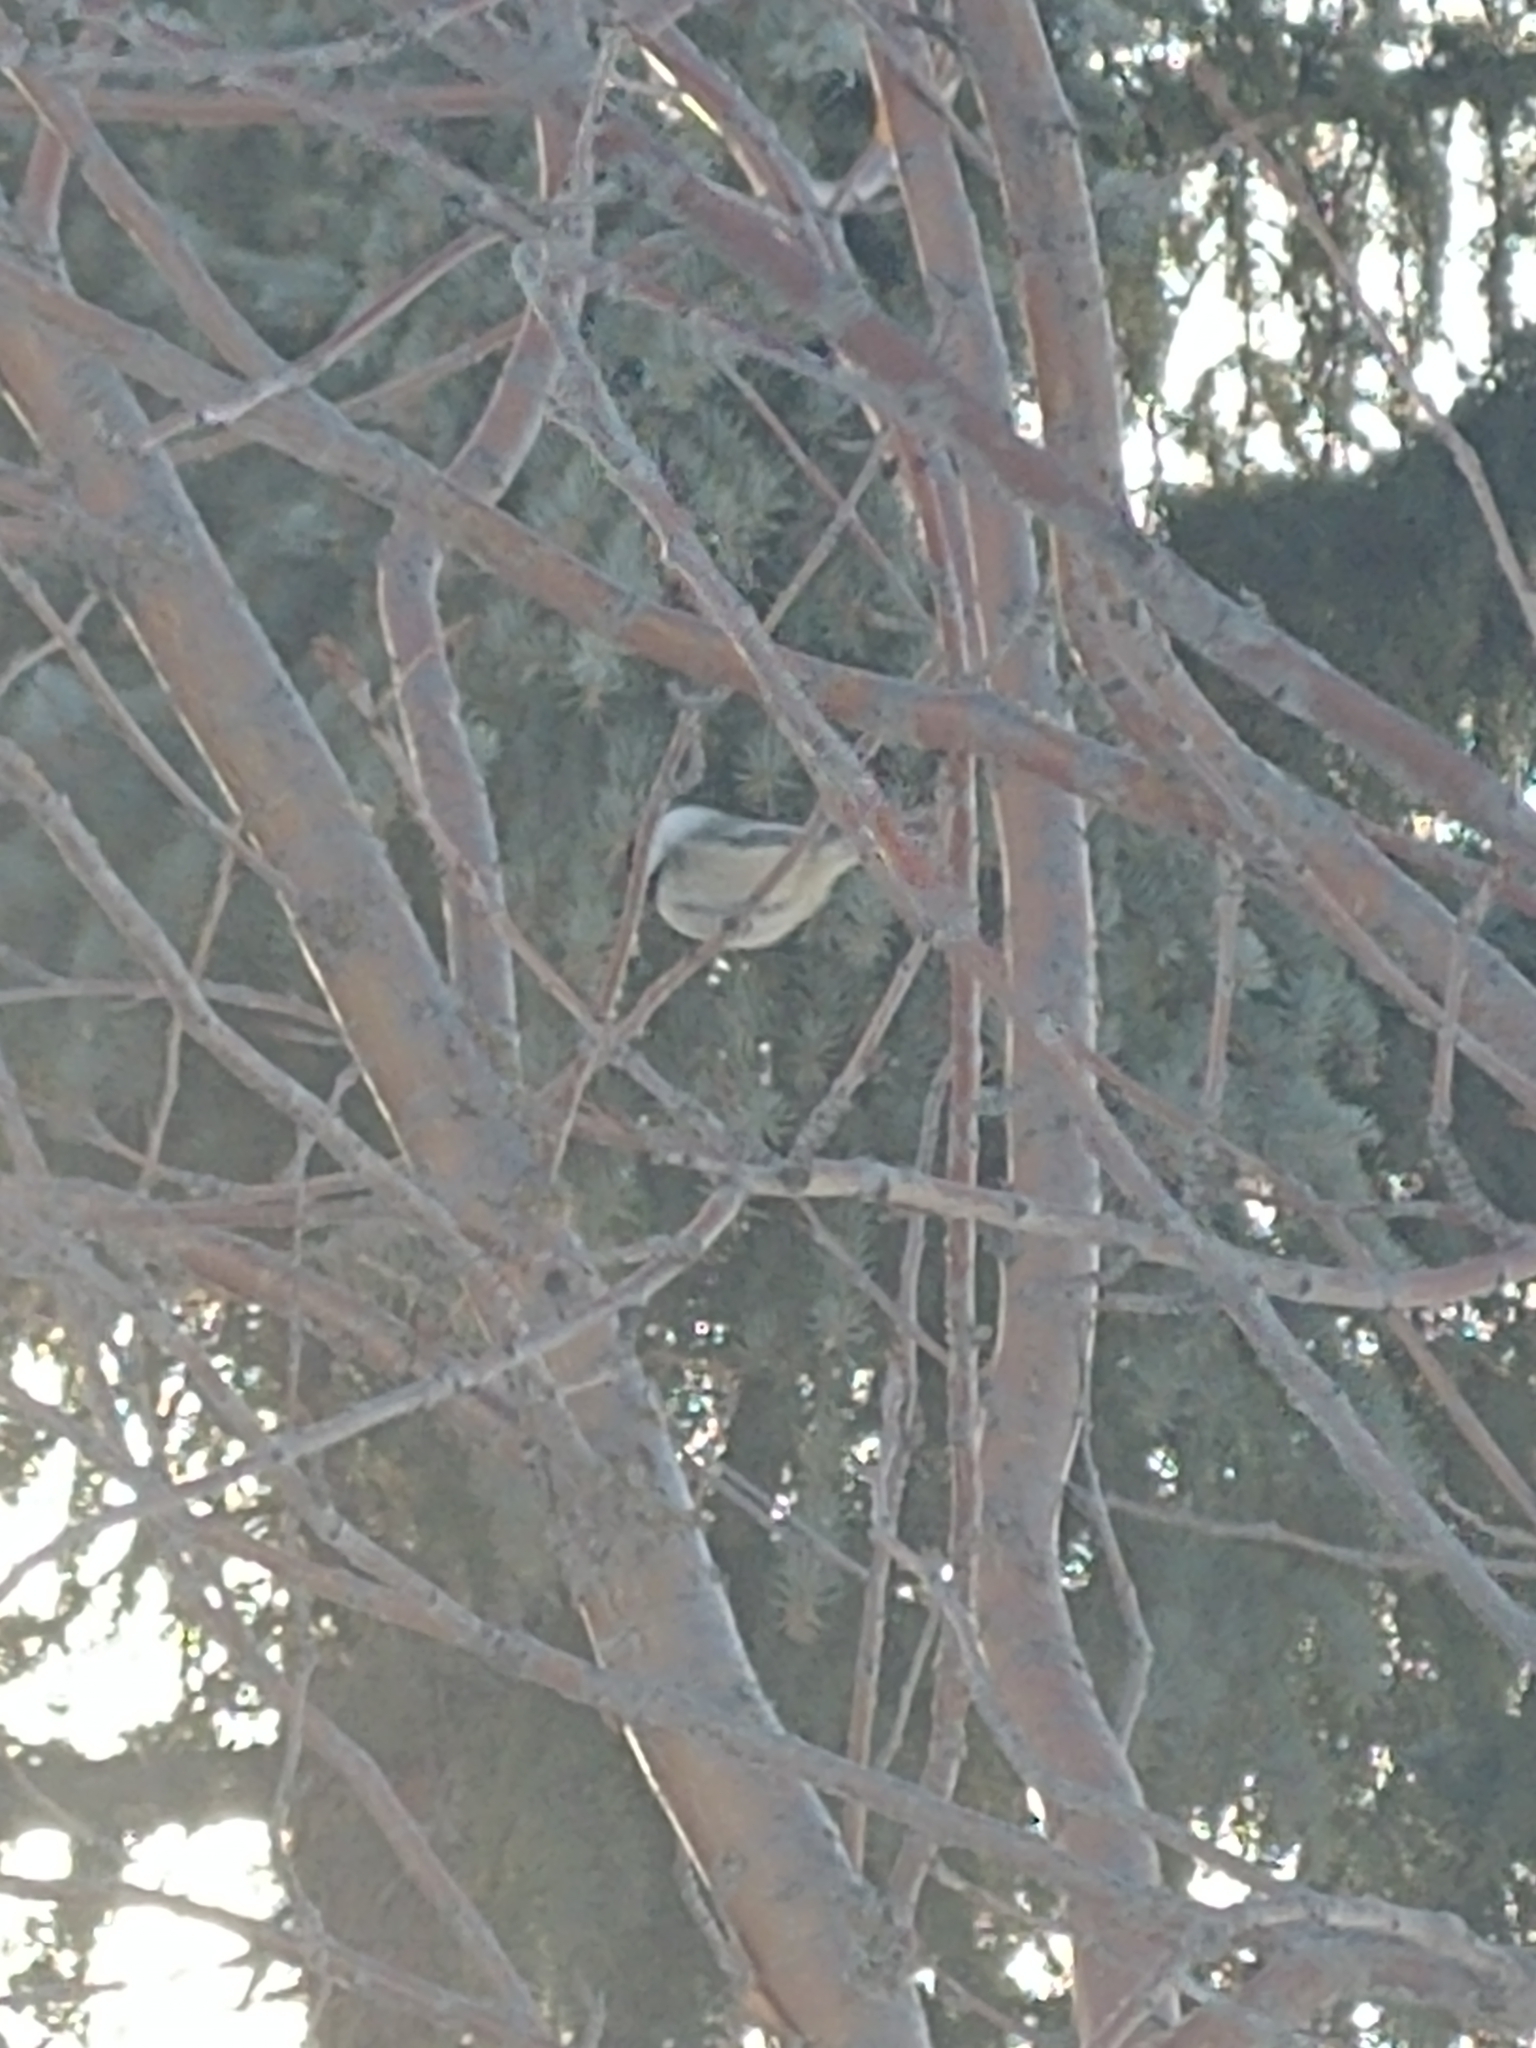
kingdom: Animalia
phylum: Chordata
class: Aves
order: Passeriformes
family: Paridae
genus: Poecile
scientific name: Poecile atricapillus
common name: Black-capped chickadee
